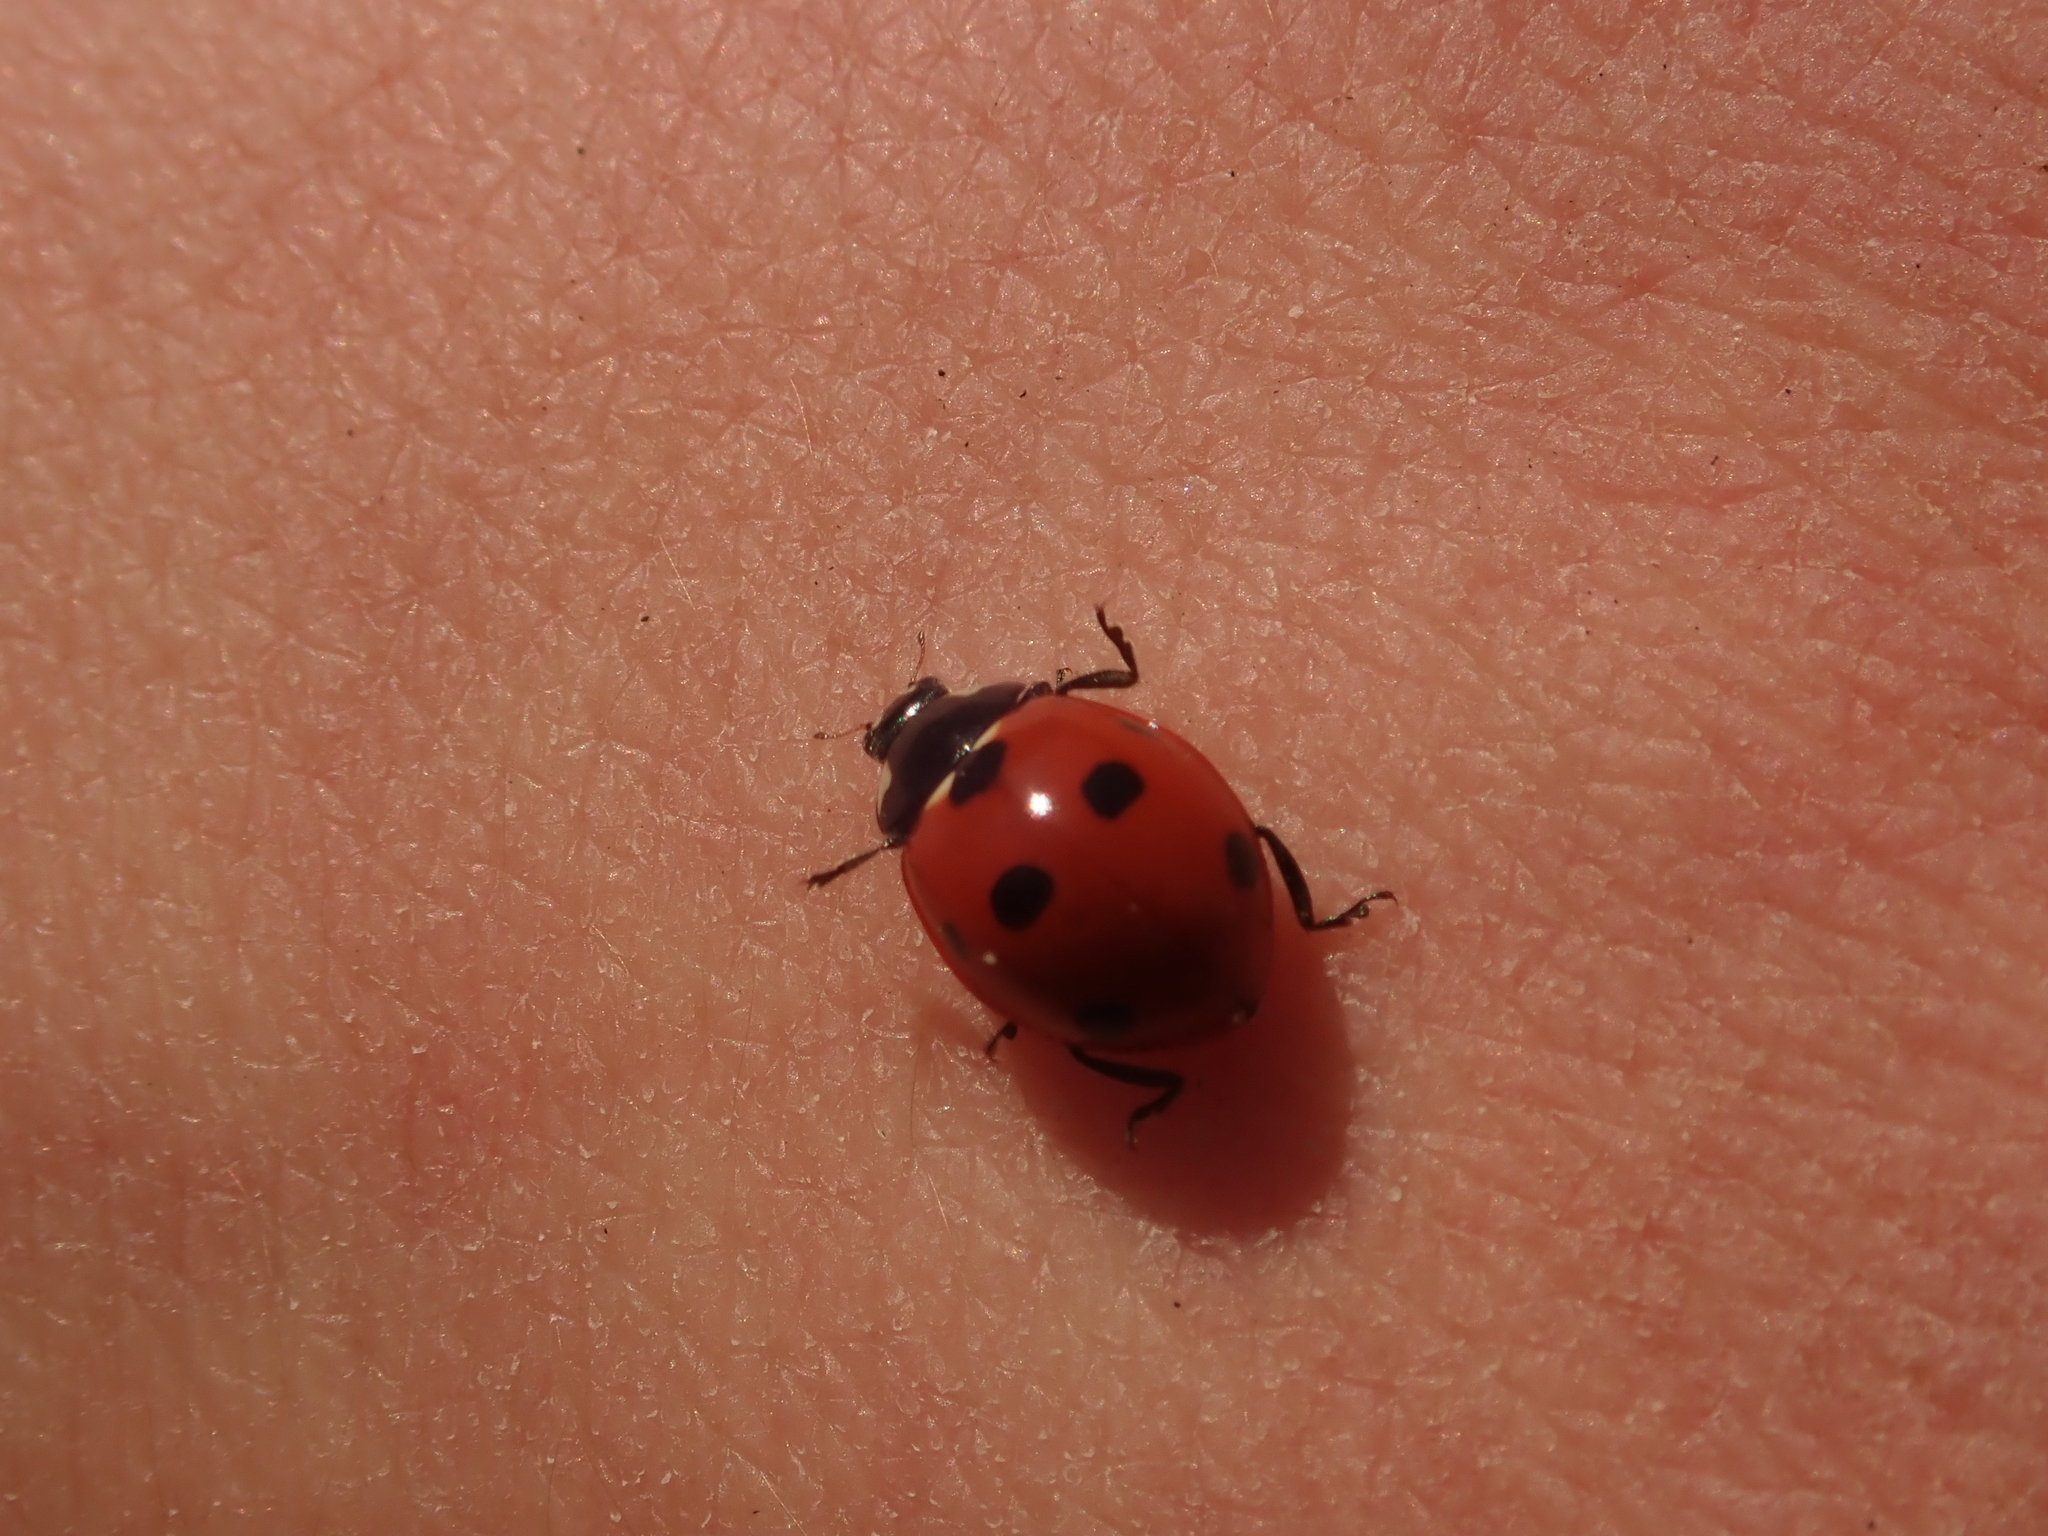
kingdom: Animalia
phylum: Arthropoda
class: Insecta
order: Coleoptera
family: Coccinellidae
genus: Coccinella
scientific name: Coccinella septempunctata
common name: Sevenspotted lady beetle
